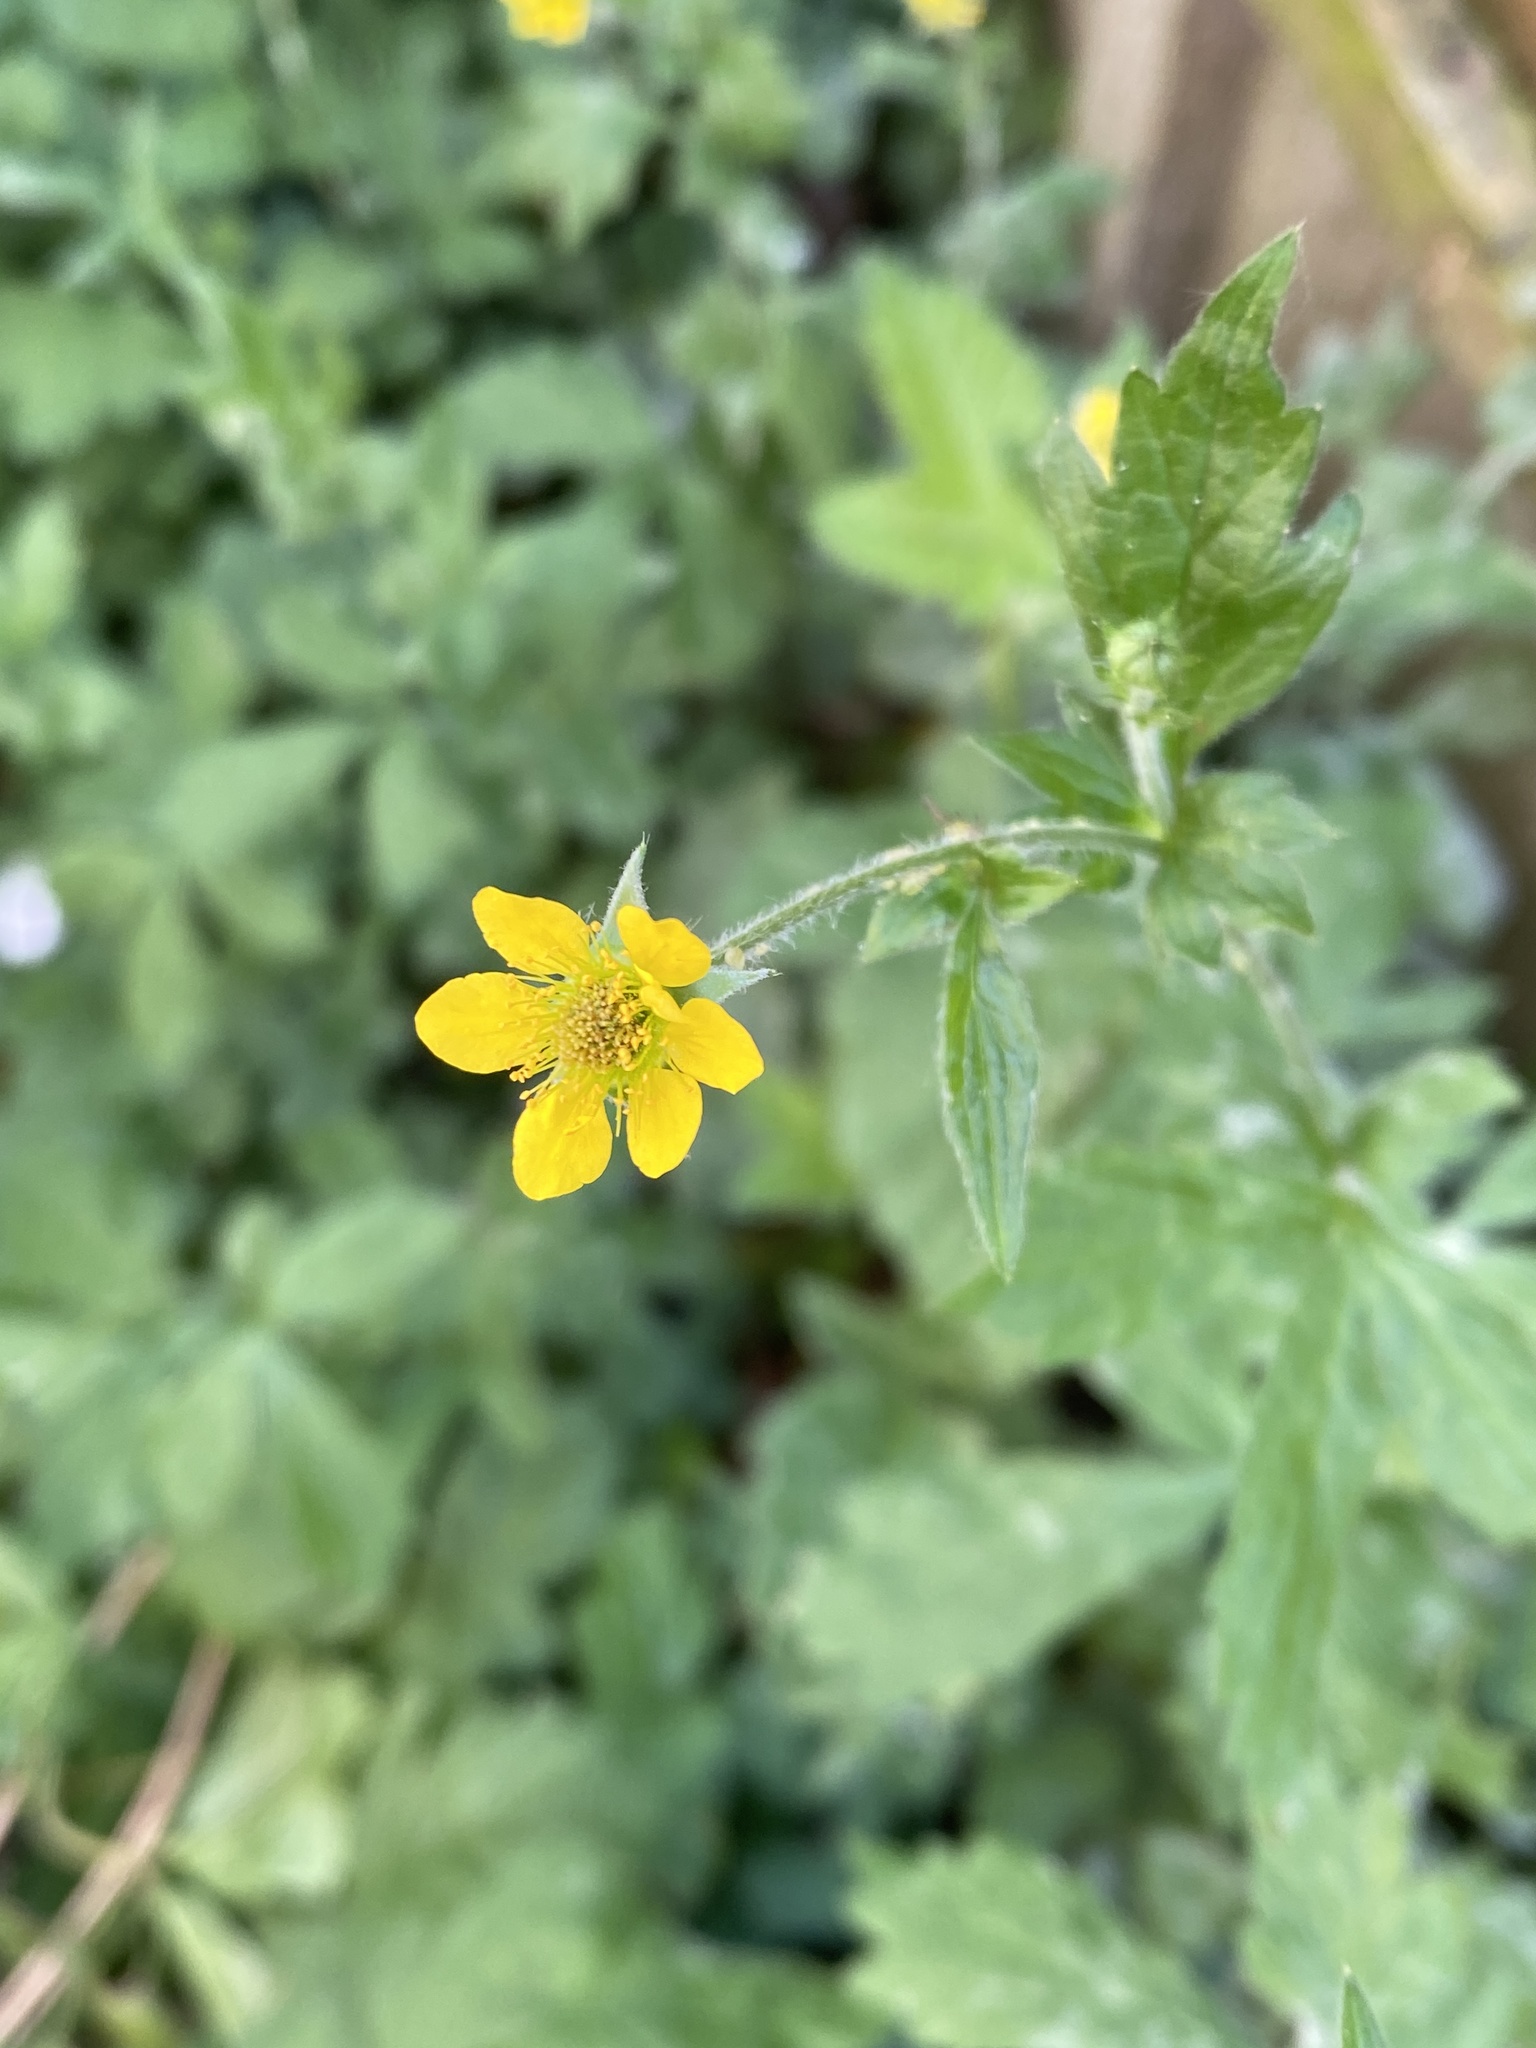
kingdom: Plantae
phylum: Tracheophyta
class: Magnoliopsida
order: Rosales
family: Rosaceae
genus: Geum
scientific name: Geum urbanum
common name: Wood avens
